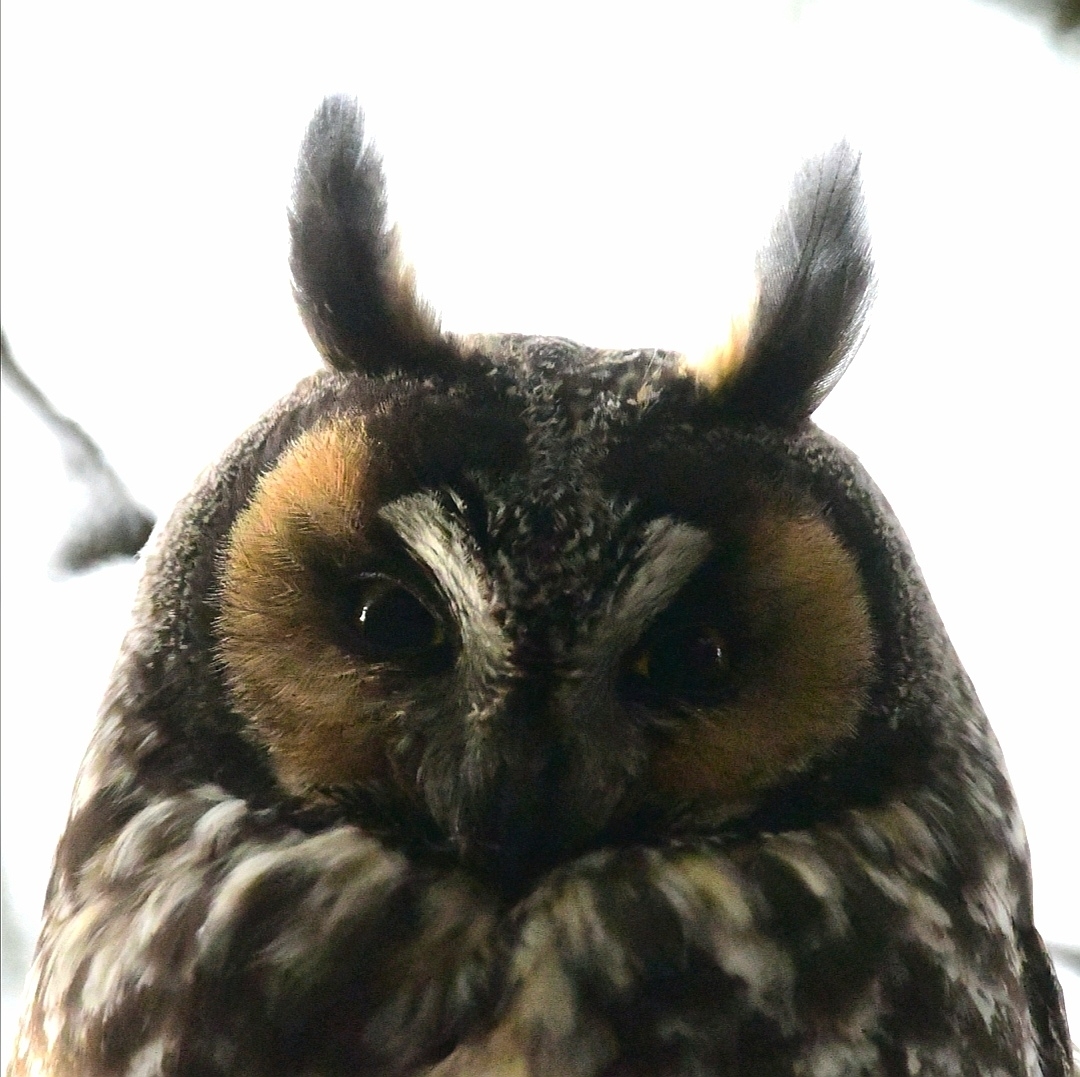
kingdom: Animalia
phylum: Chordata
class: Aves
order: Strigiformes
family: Strigidae
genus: Asio
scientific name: Asio otus
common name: Long-eared owl
